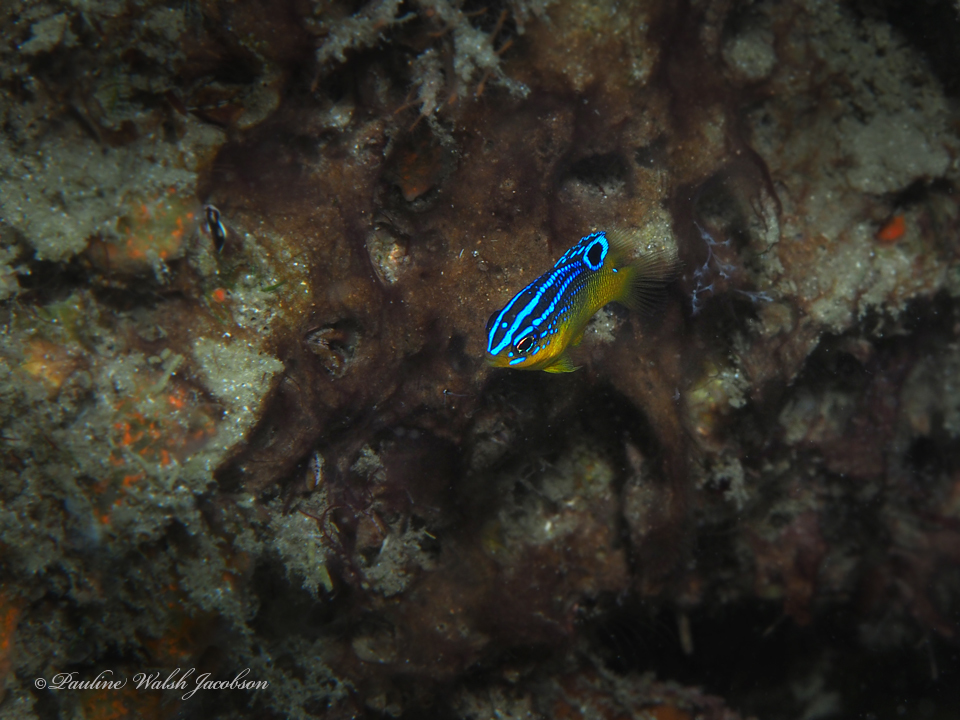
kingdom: Animalia
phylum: Chordata
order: Perciformes
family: Pomacentridae
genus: Stegastes
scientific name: Stegastes xanthurus
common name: Cocoa damselfish
